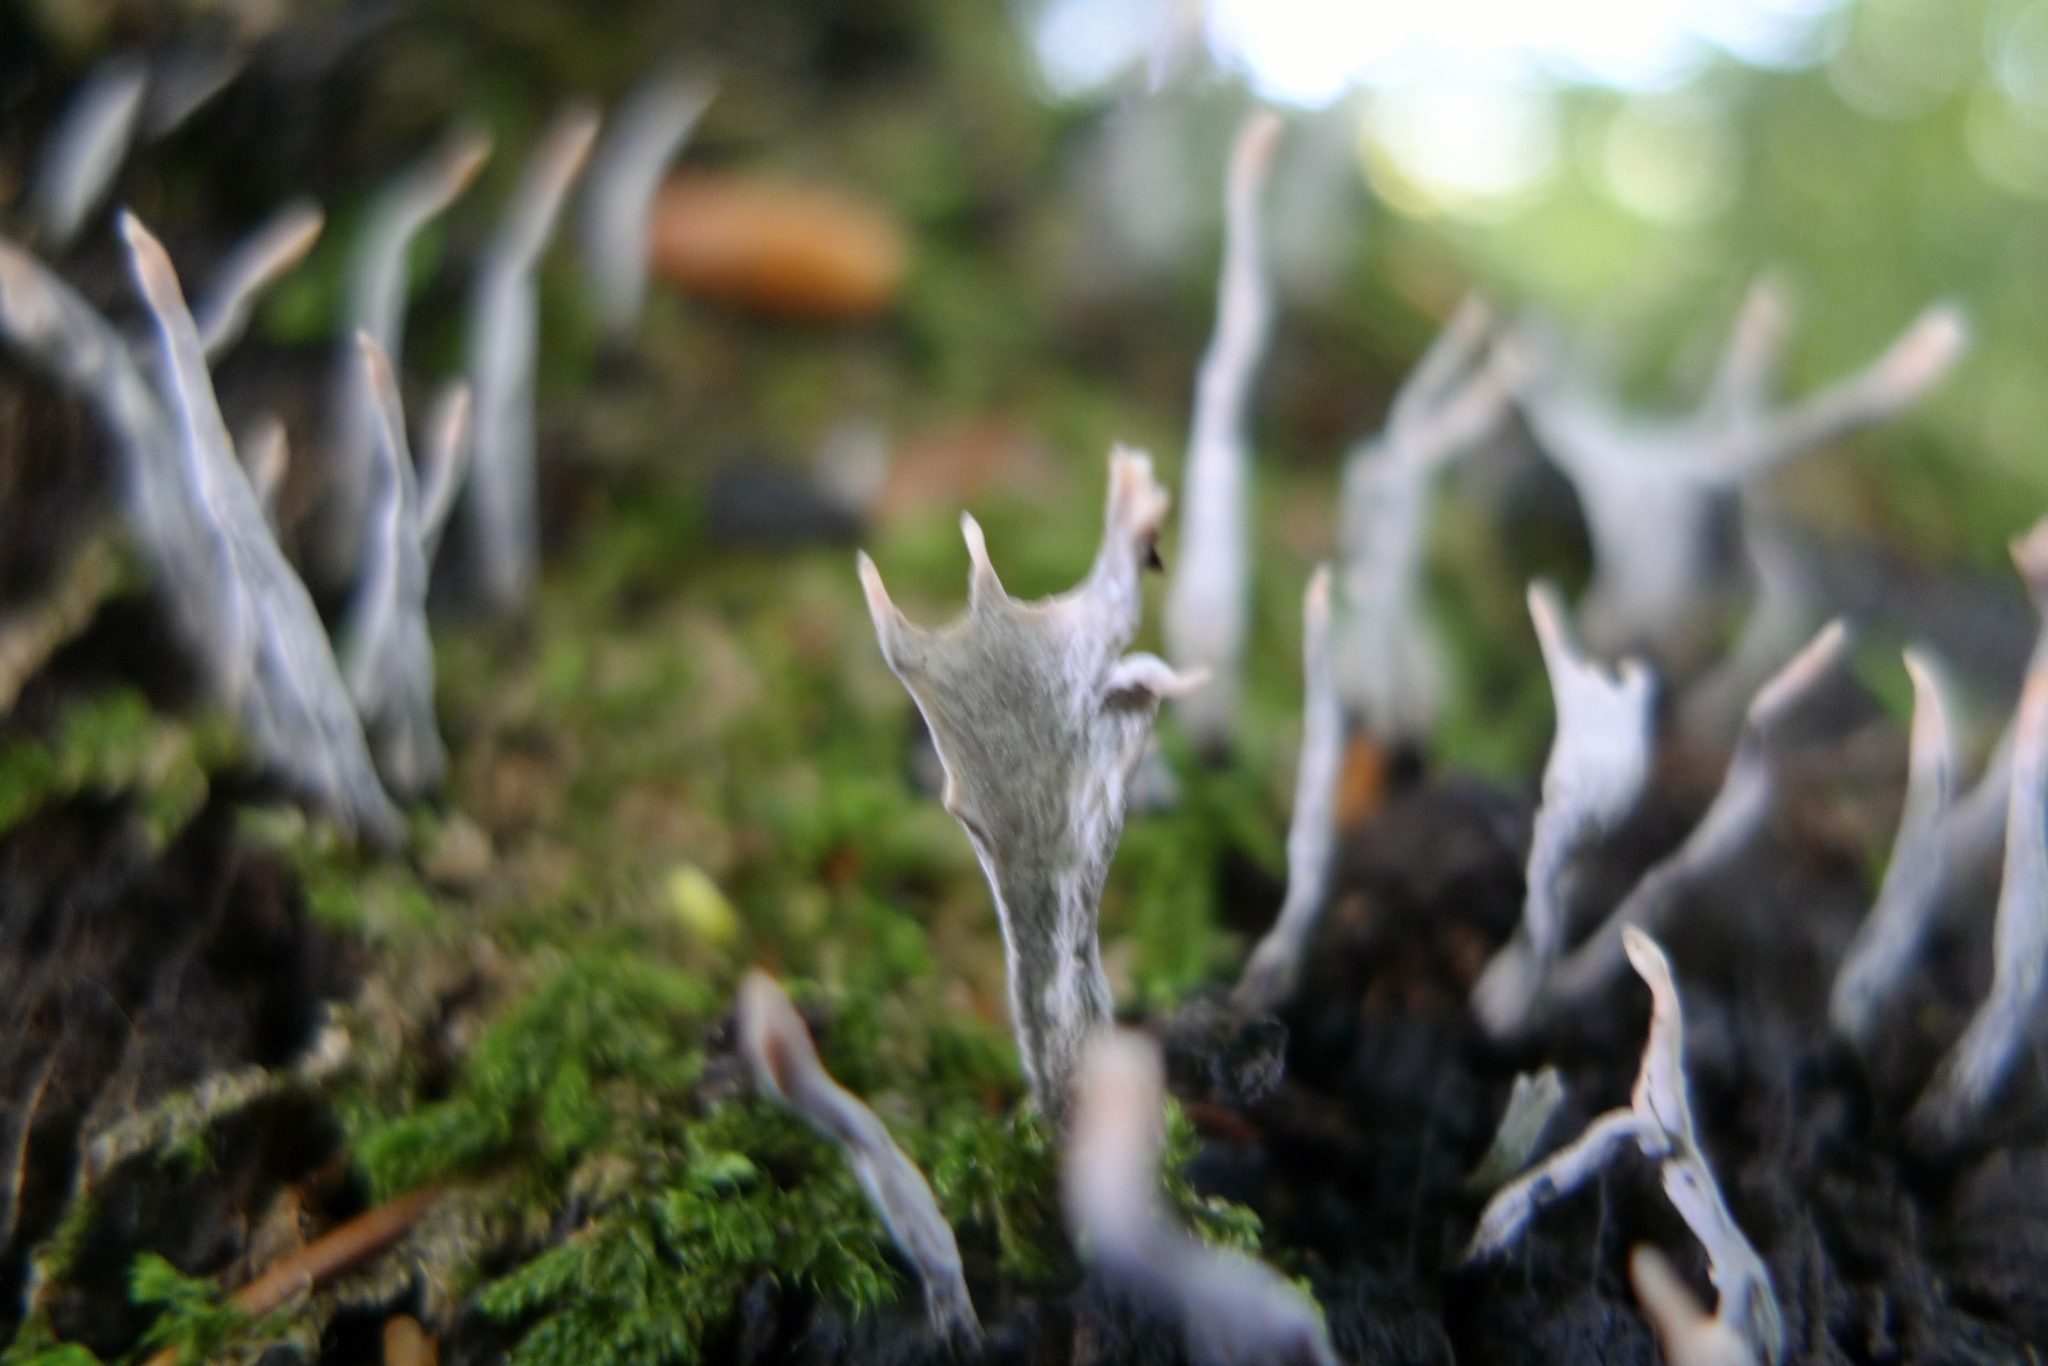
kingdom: Fungi
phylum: Ascomycota
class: Sordariomycetes
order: Xylariales
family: Xylariaceae
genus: Xylaria
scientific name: Xylaria hypoxylon
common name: Candle-snuff fungus
